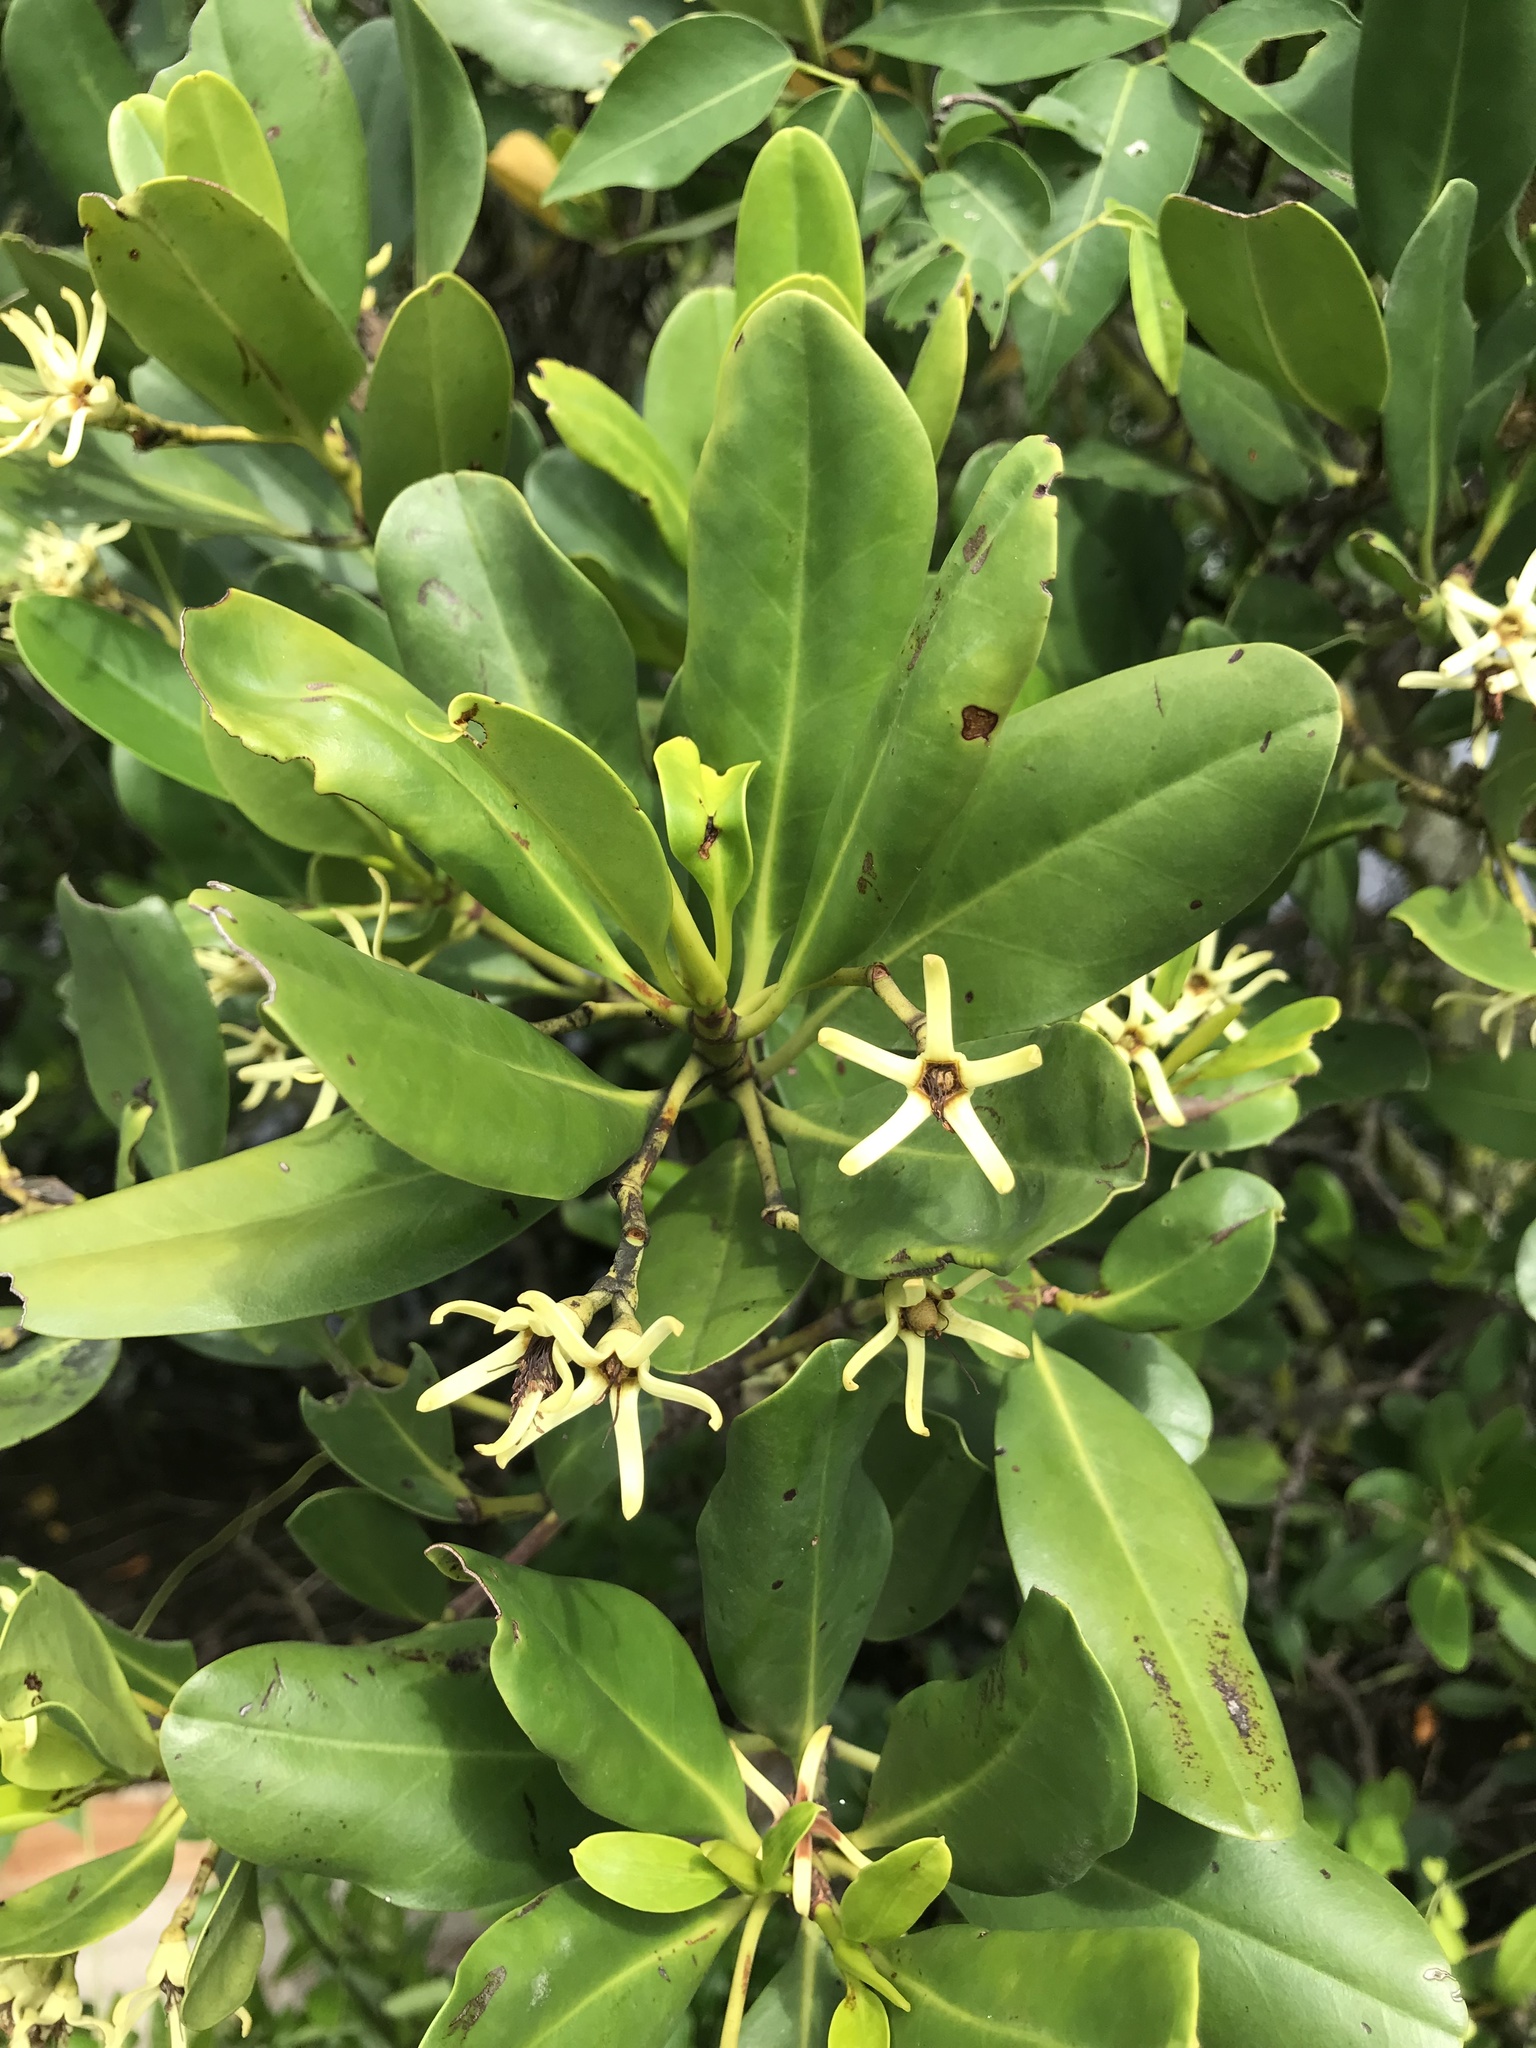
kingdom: Plantae
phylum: Tracheophyta
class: Magnoliopsida
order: Malpighiales
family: Rhizophoraceae
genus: Kandelia
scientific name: Kandelia obovata
